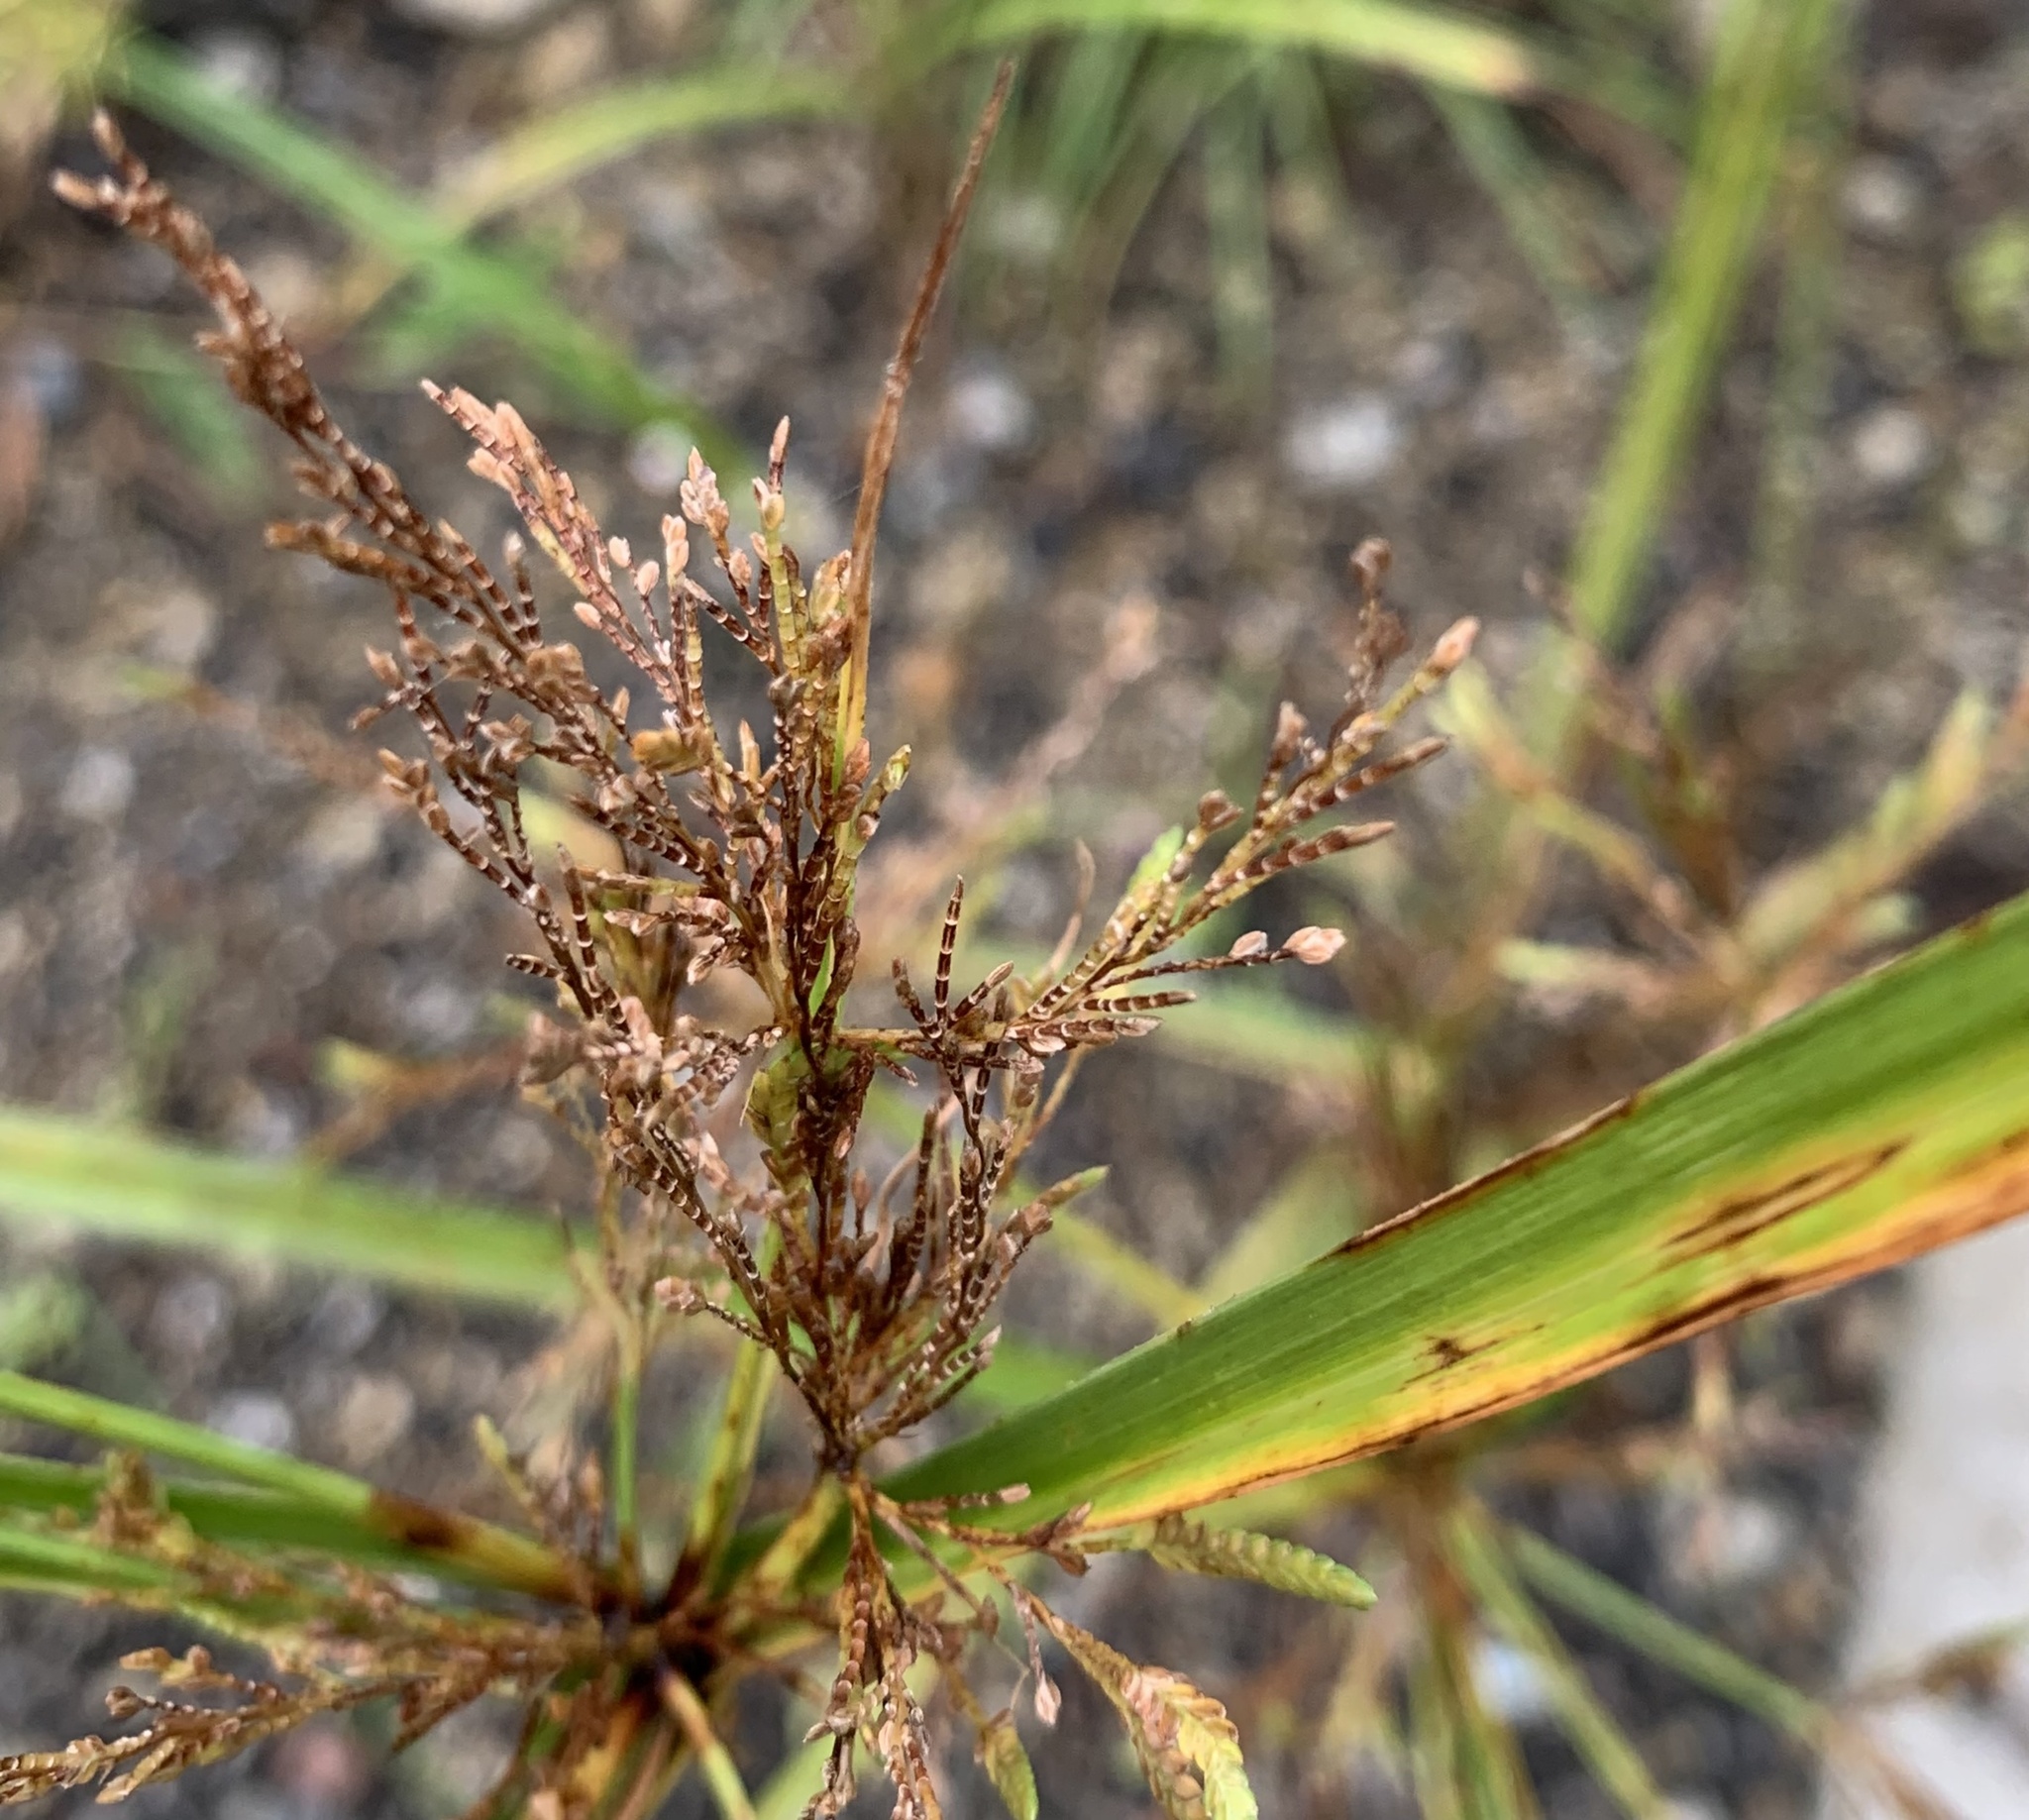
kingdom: Plantae
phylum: Tracheophyta
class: Liliopsida
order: Poales
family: Cyperaceae
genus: Cyperus
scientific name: Cyperus iria
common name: Ricefield flatsedge
